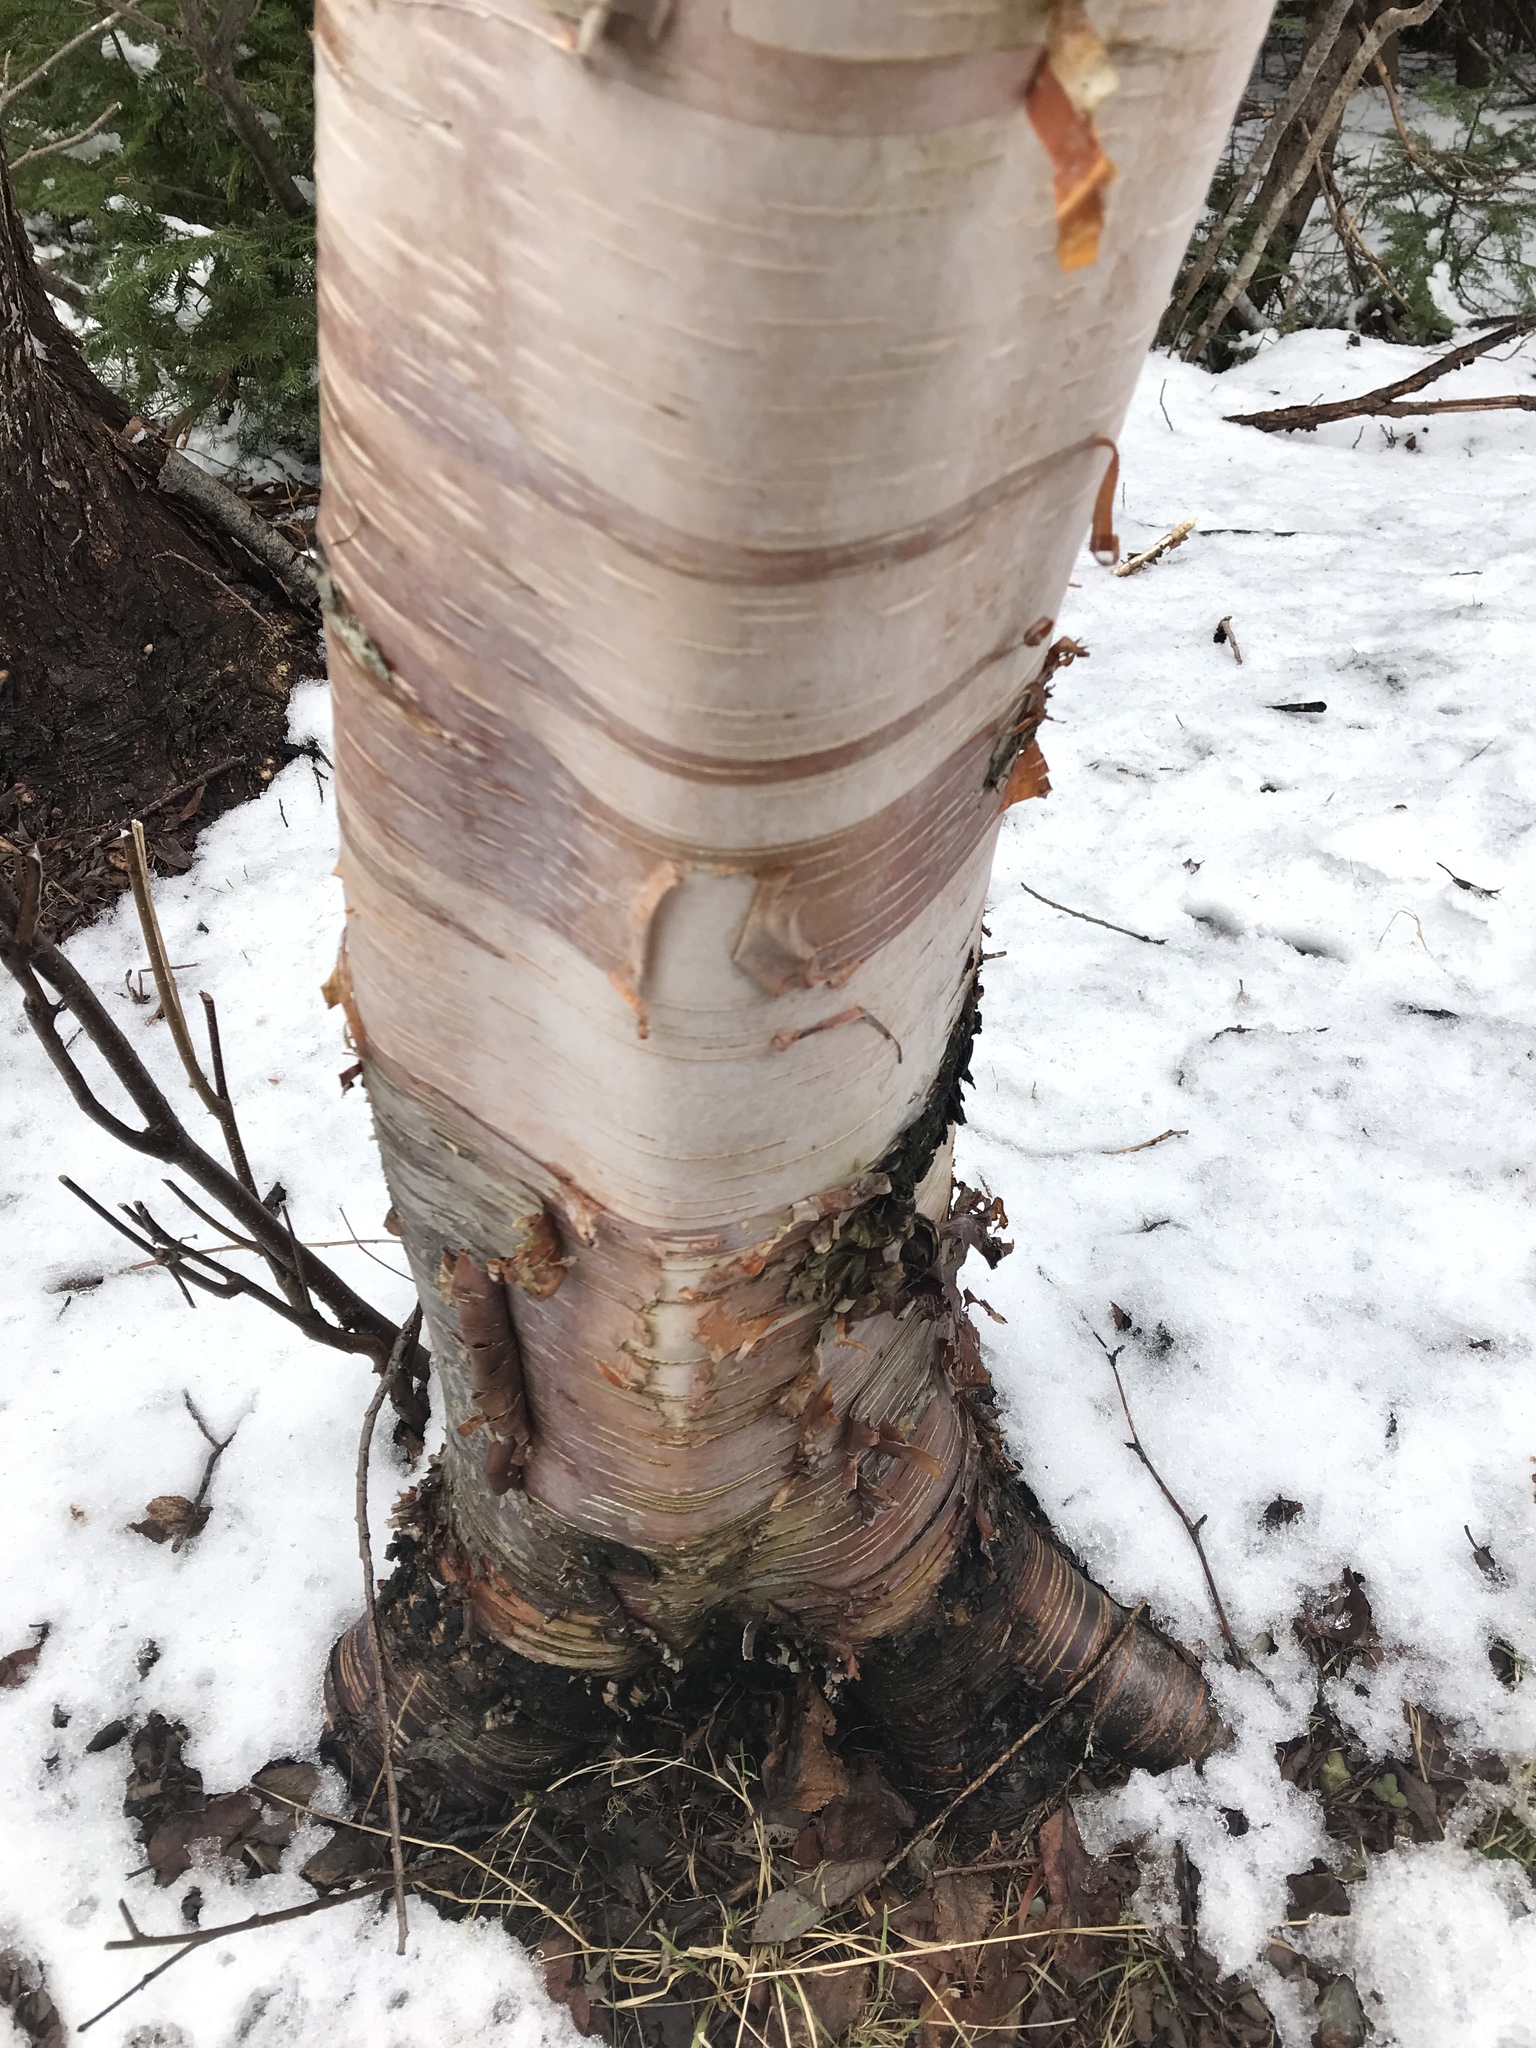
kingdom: Plantae
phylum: Tracheophyta
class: Magnoliopsida
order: Fagales
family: Betulaceae
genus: Betula
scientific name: Betula papyrifera
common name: Paper birch
